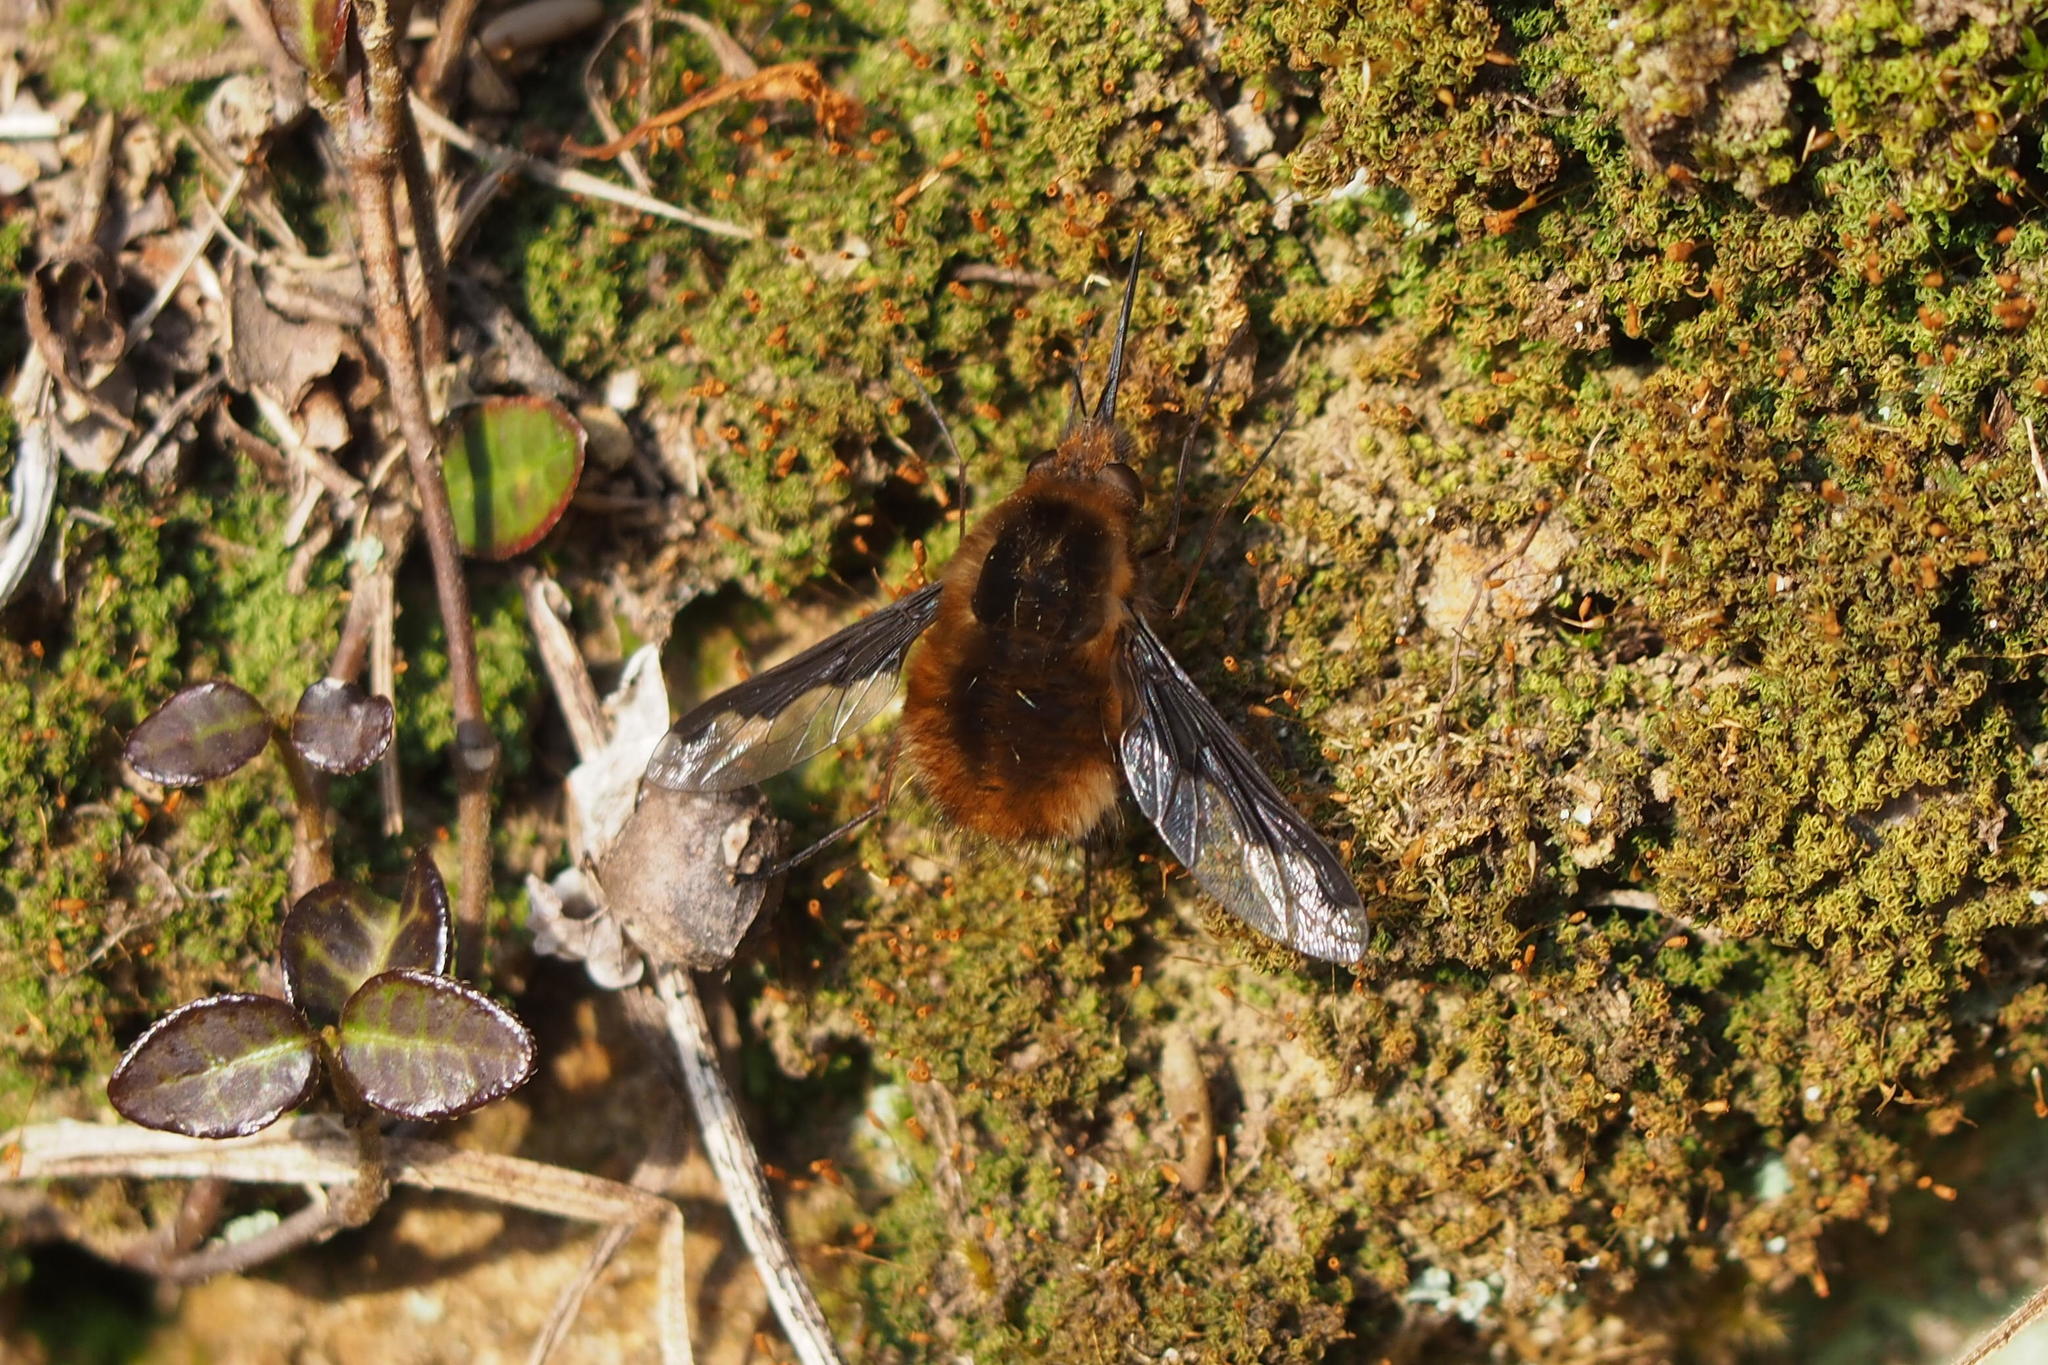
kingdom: Animalia
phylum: Arthropoda
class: Insecta
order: Diptera
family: Bombyliidae
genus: Bombylius
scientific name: Bombylius major
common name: Bee fly
